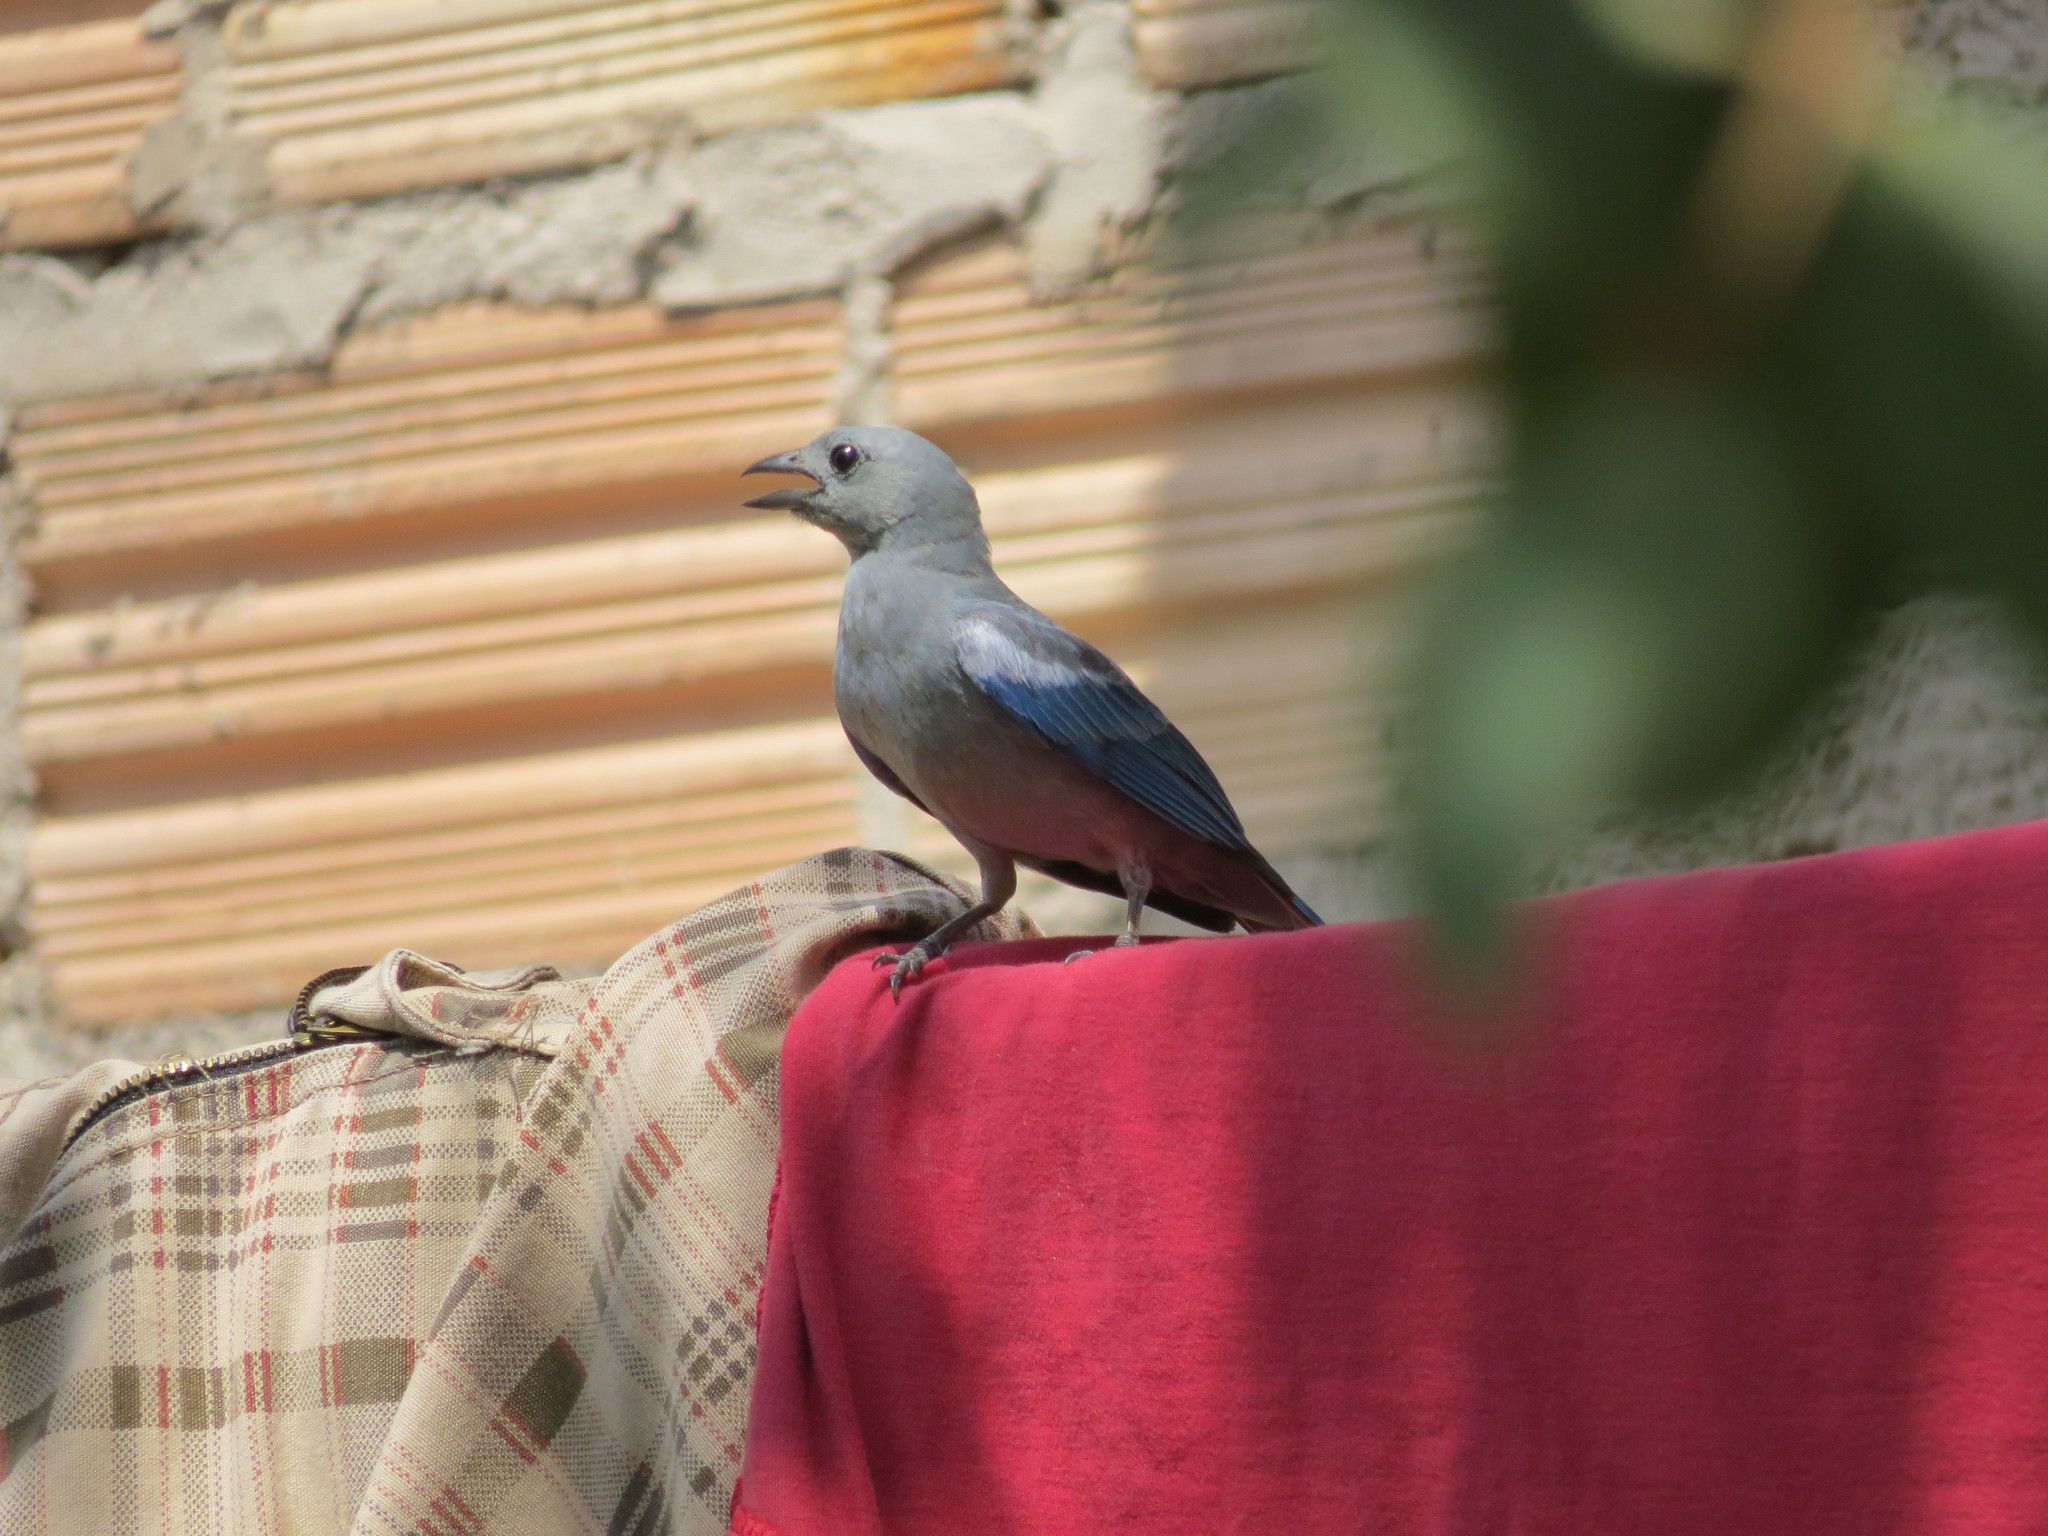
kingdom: Animalia
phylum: Chordata
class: Aves
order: Passeriformes
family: Thraupidae
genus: Thraupis
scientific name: Thraupis episcopus
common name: Blue-grey tanager
